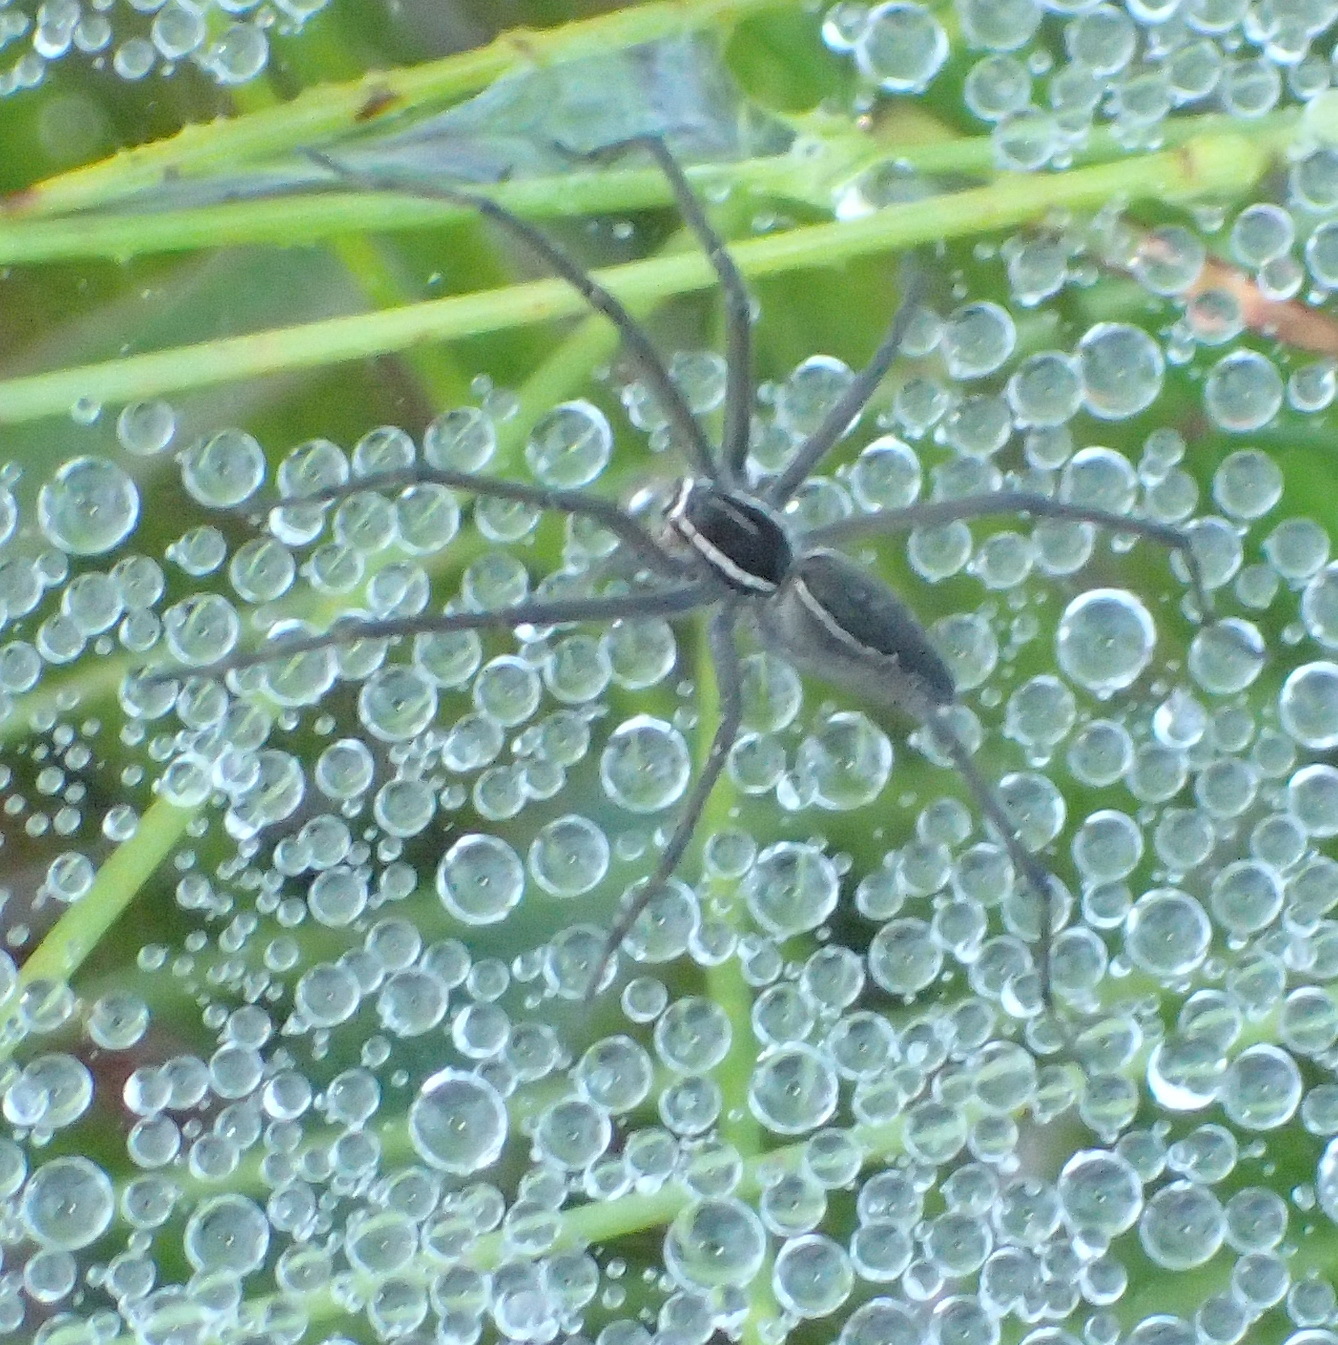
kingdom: Animalia
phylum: Arthropoda
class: Arachnida
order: Araneae
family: Pisauridae
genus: Euprosthenopsis
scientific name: Euprosthenopsis pulchella
